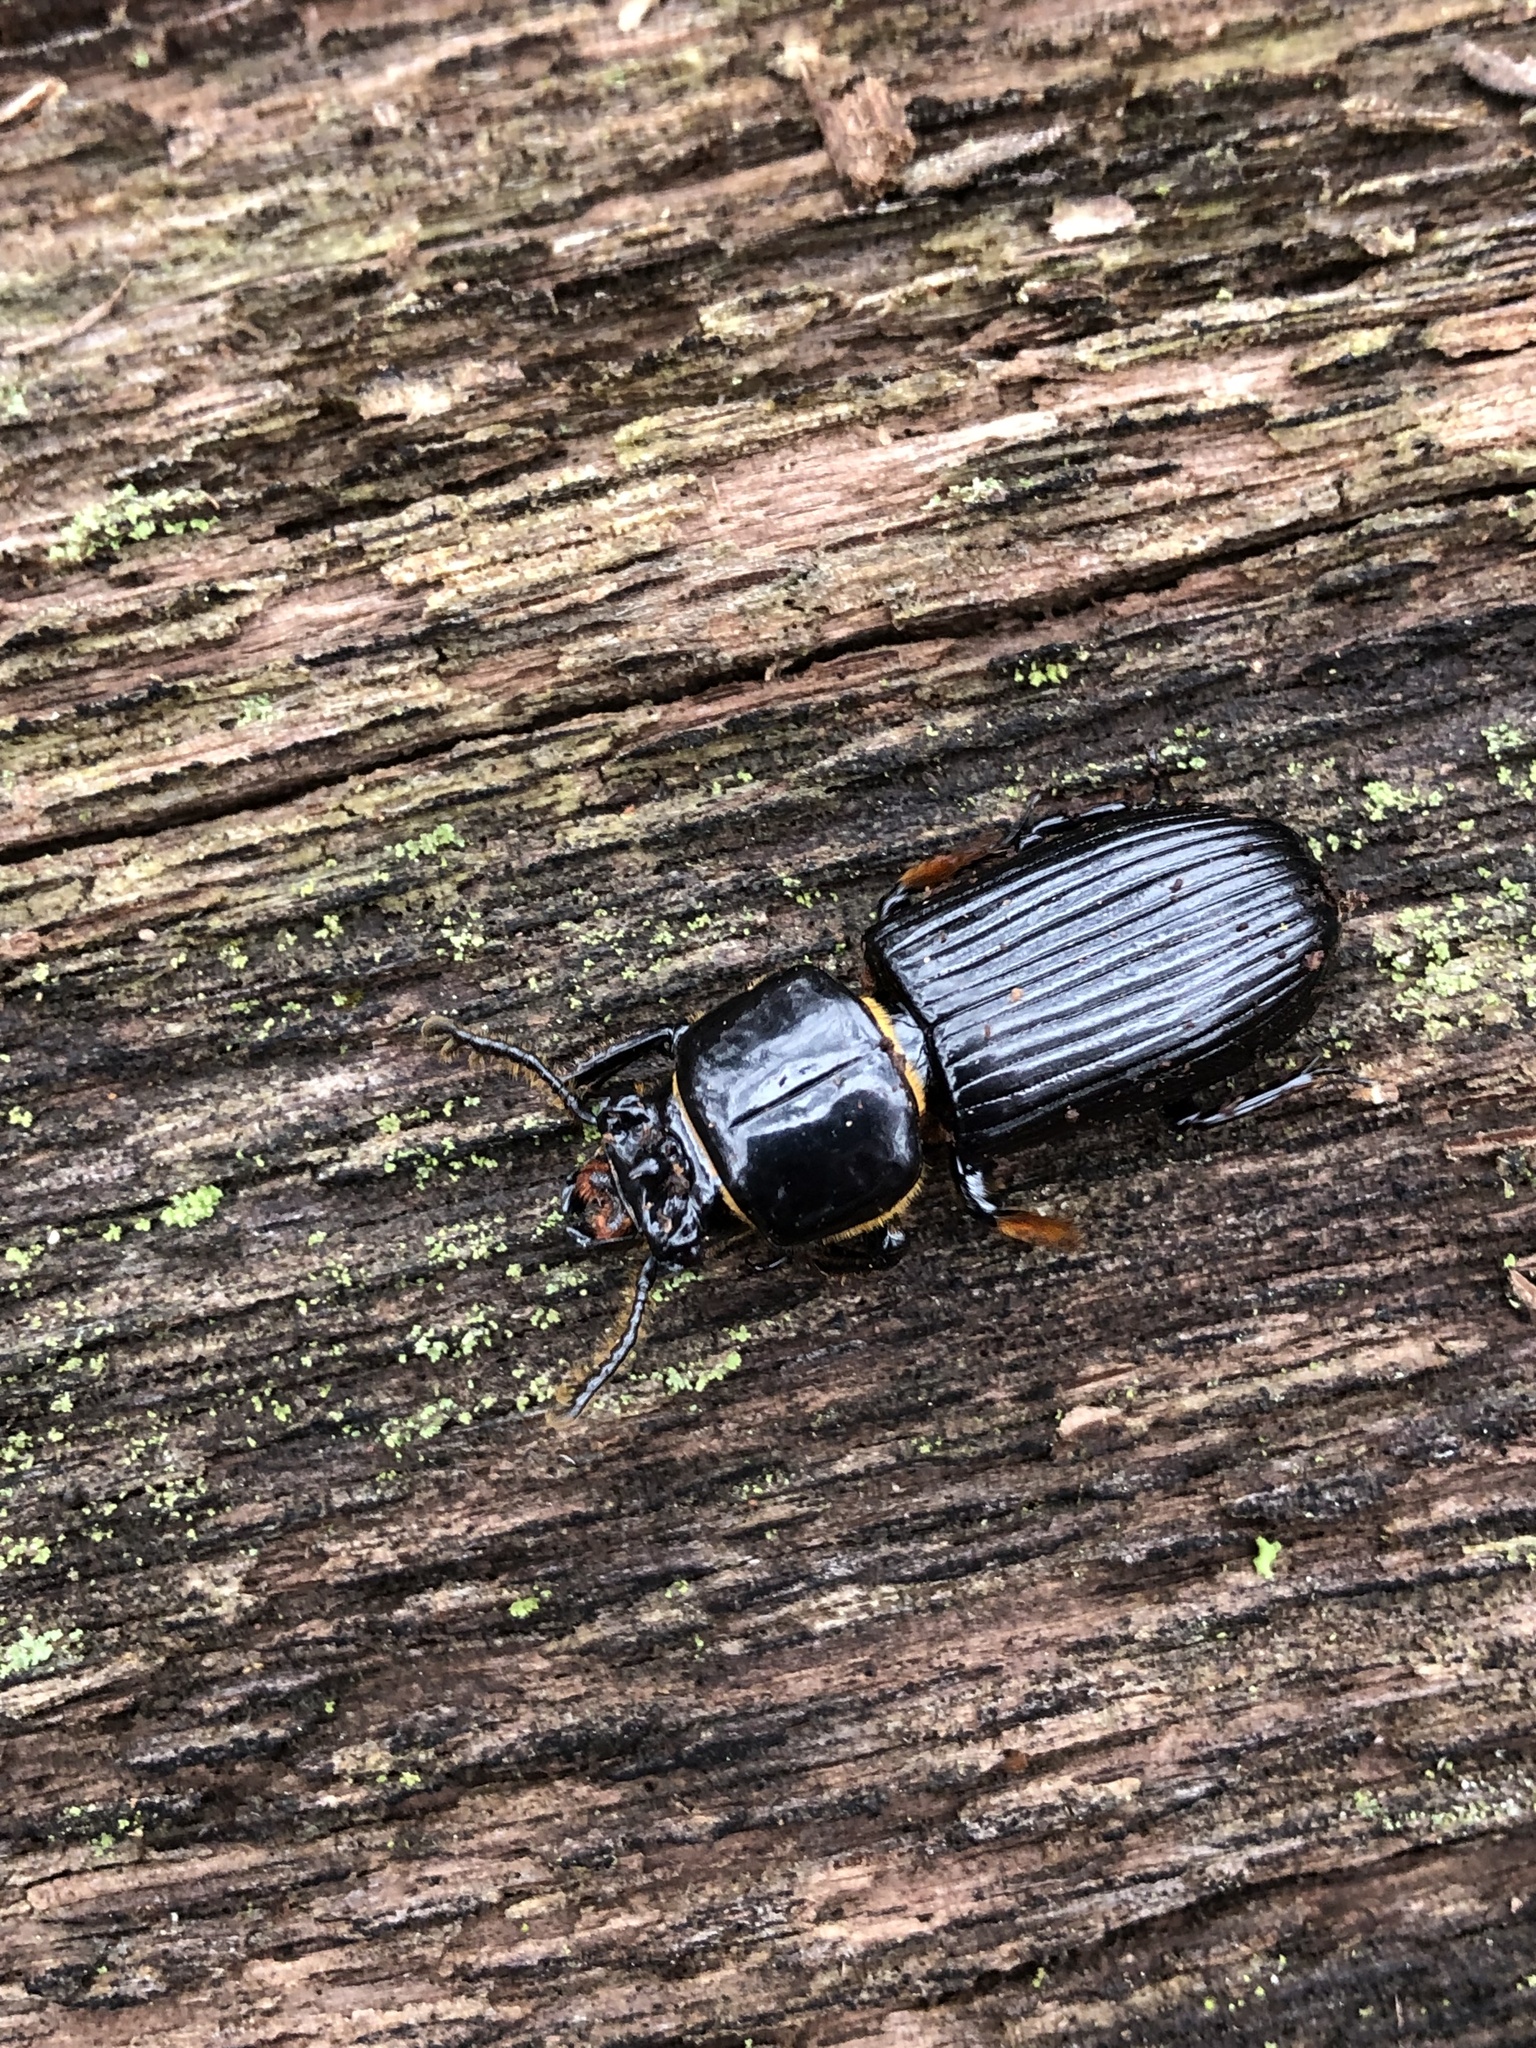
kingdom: Animalia
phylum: Arthropoda
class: Insecta
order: Coleoptera
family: Passalidae
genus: Odontotaenius
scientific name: Odontotaenius disjunctus
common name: Patent leather beetle
